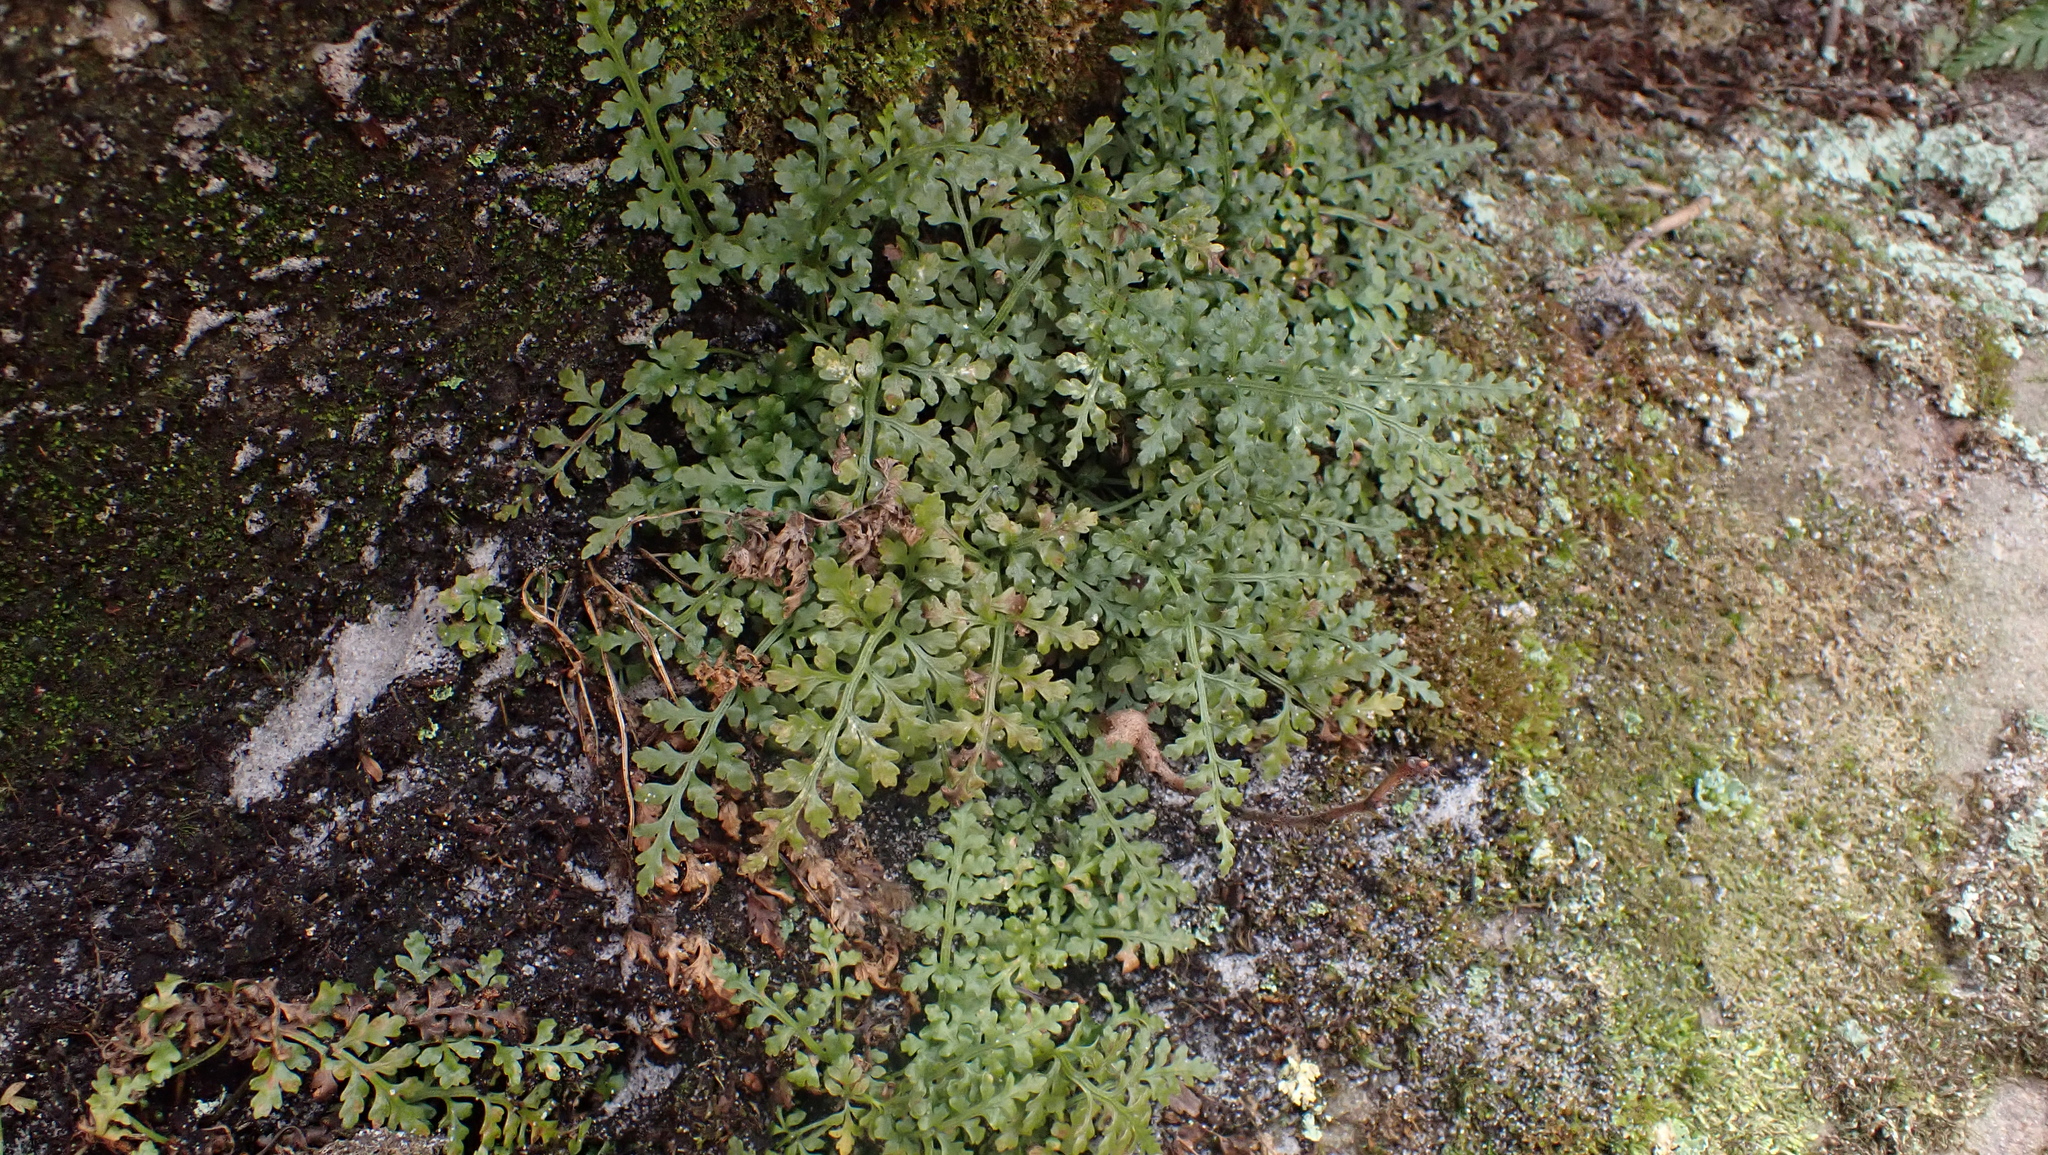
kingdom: Plantae
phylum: Tracheophyta
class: Polypodiopsida
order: Polypodiales
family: Aspleniaceae
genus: Asplenium
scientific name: Asplenium montanum
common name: Mountain spleenwort
